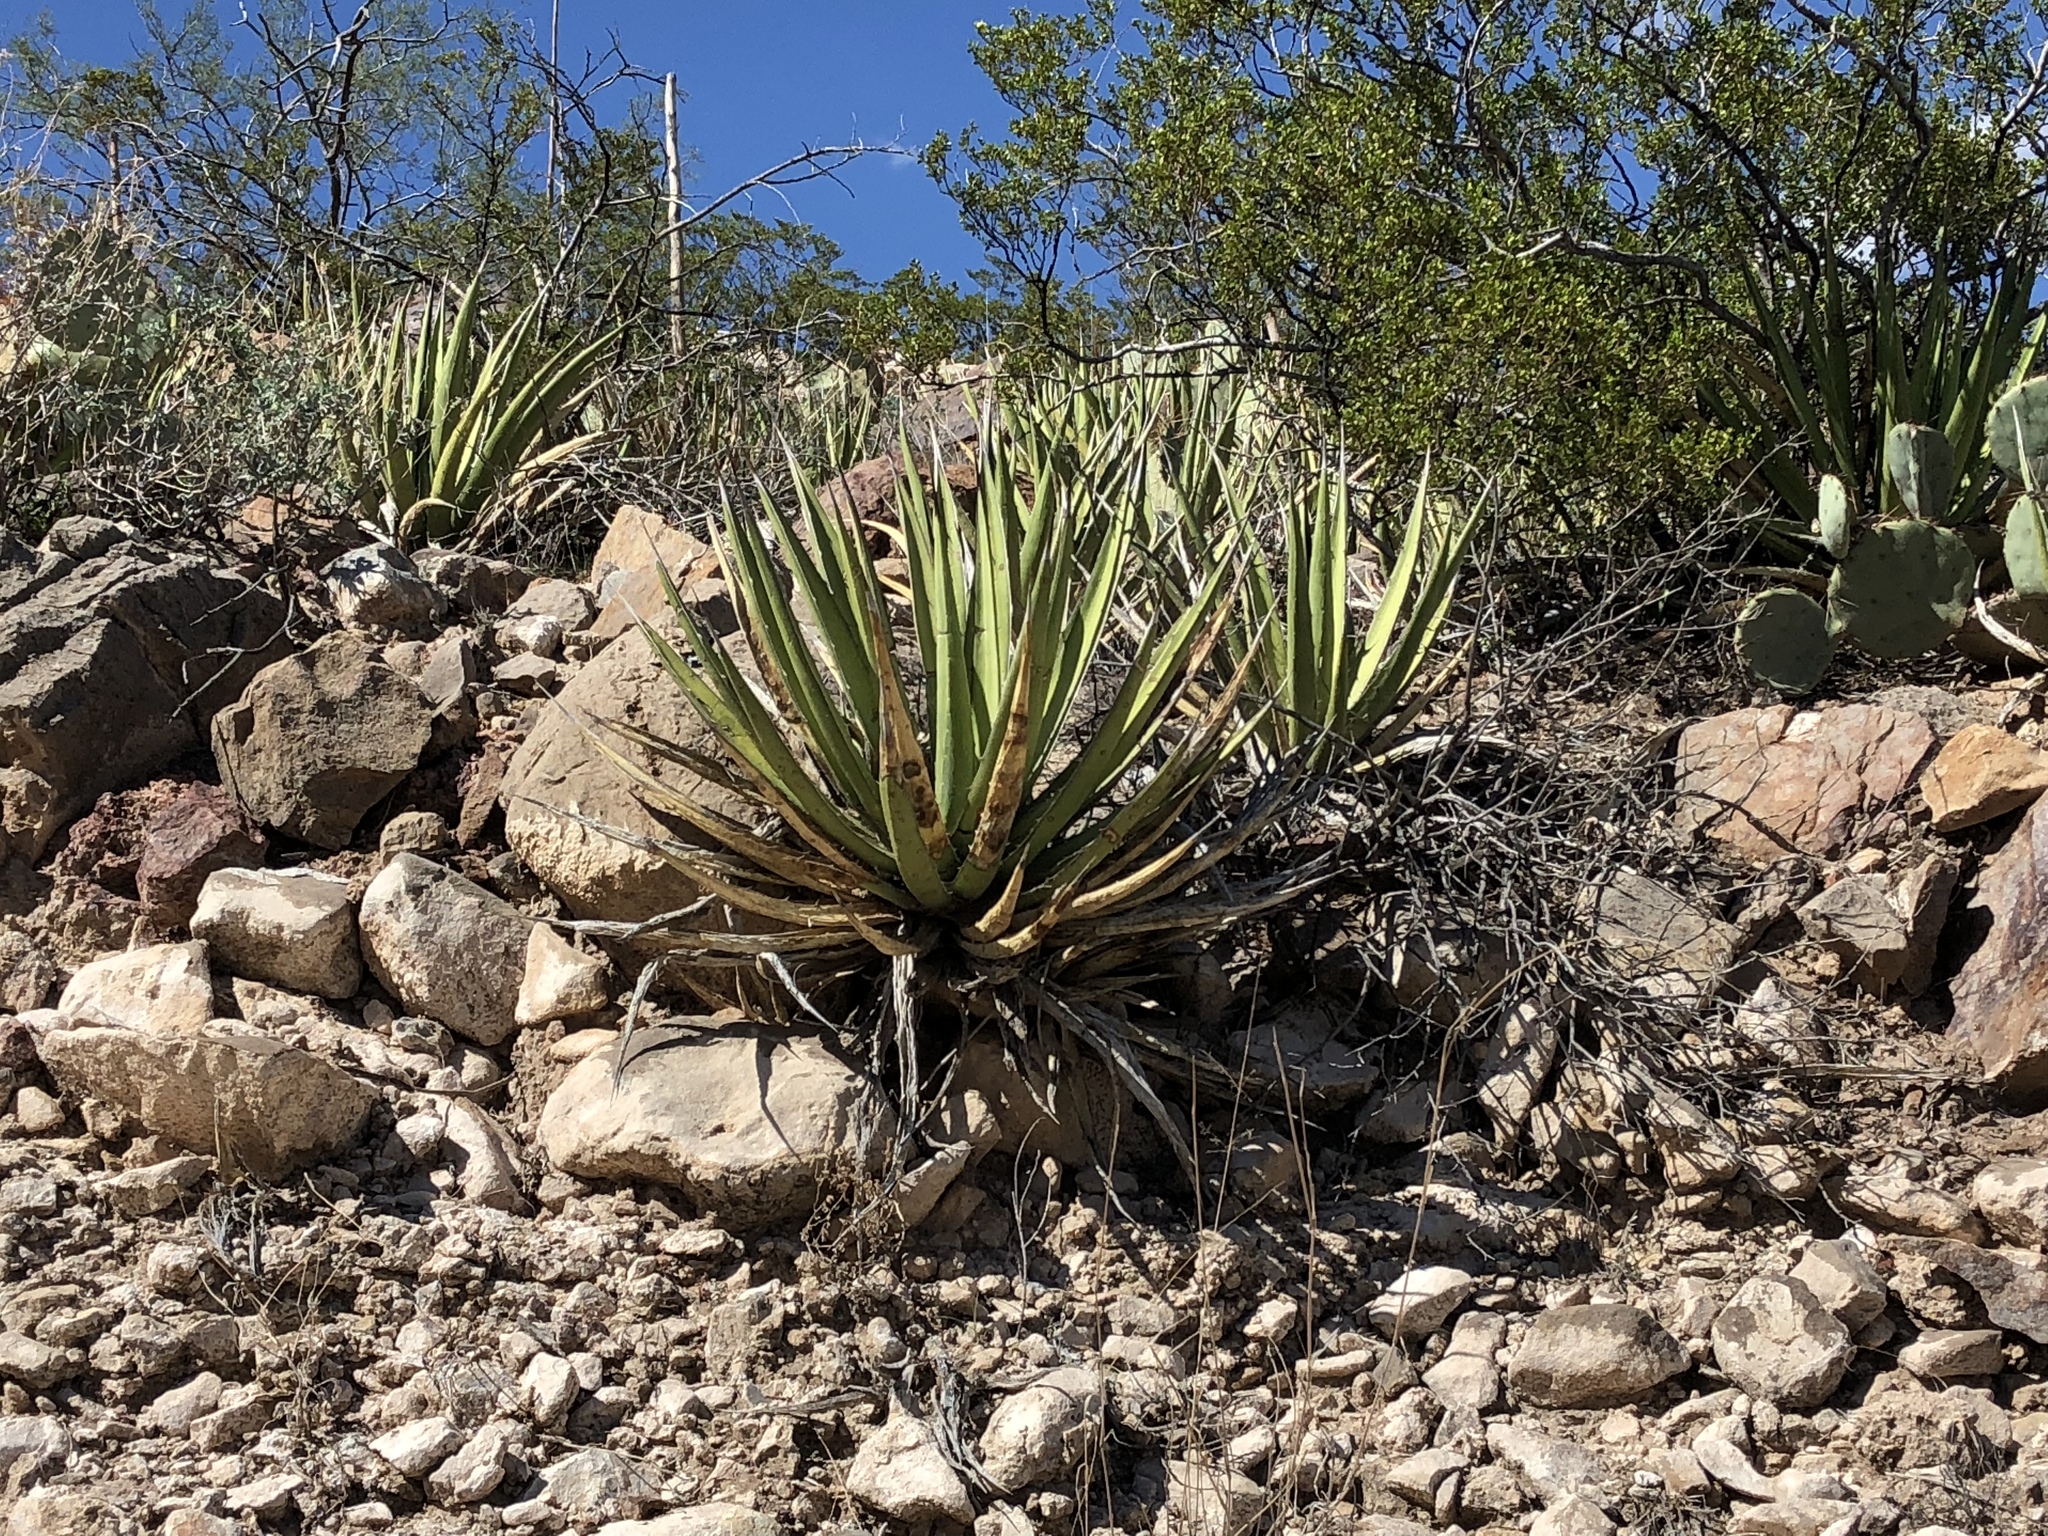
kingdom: Plantae
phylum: Tracheophyta
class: Liliopsida
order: Asparagales
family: Asparagaceae
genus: Agave
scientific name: Agave lechuguilla
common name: Lecheguilla agave
